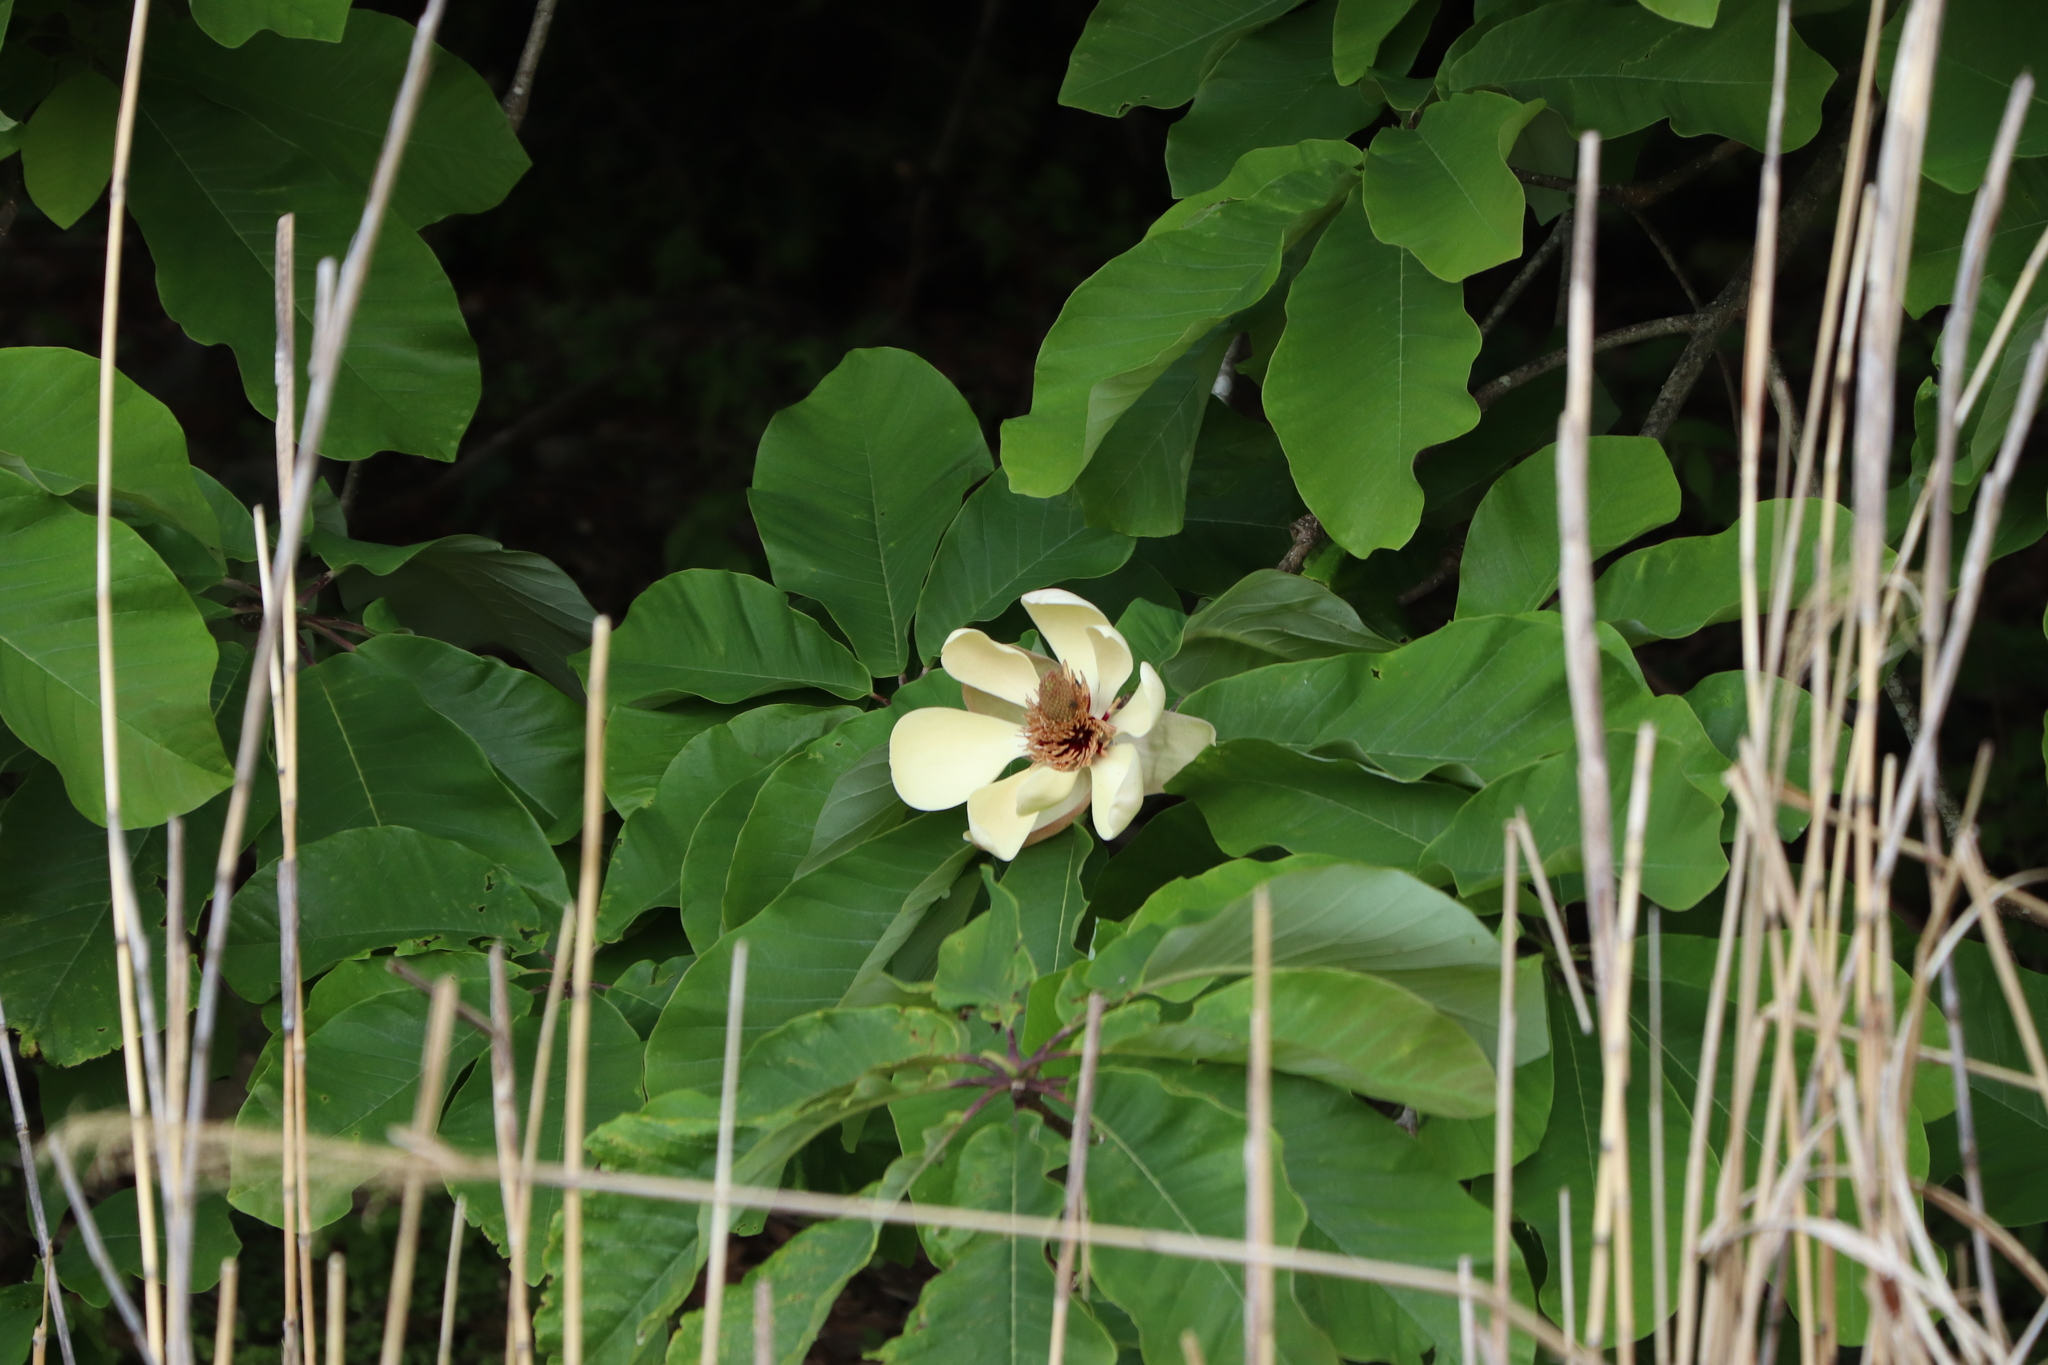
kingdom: Plantae
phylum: Tracheophyta
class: Magnoliopsida
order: Magnoliales
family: Magnoliaceae
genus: Magnolia
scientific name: Magnolia obovata
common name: Japanese whitebark magnolia
